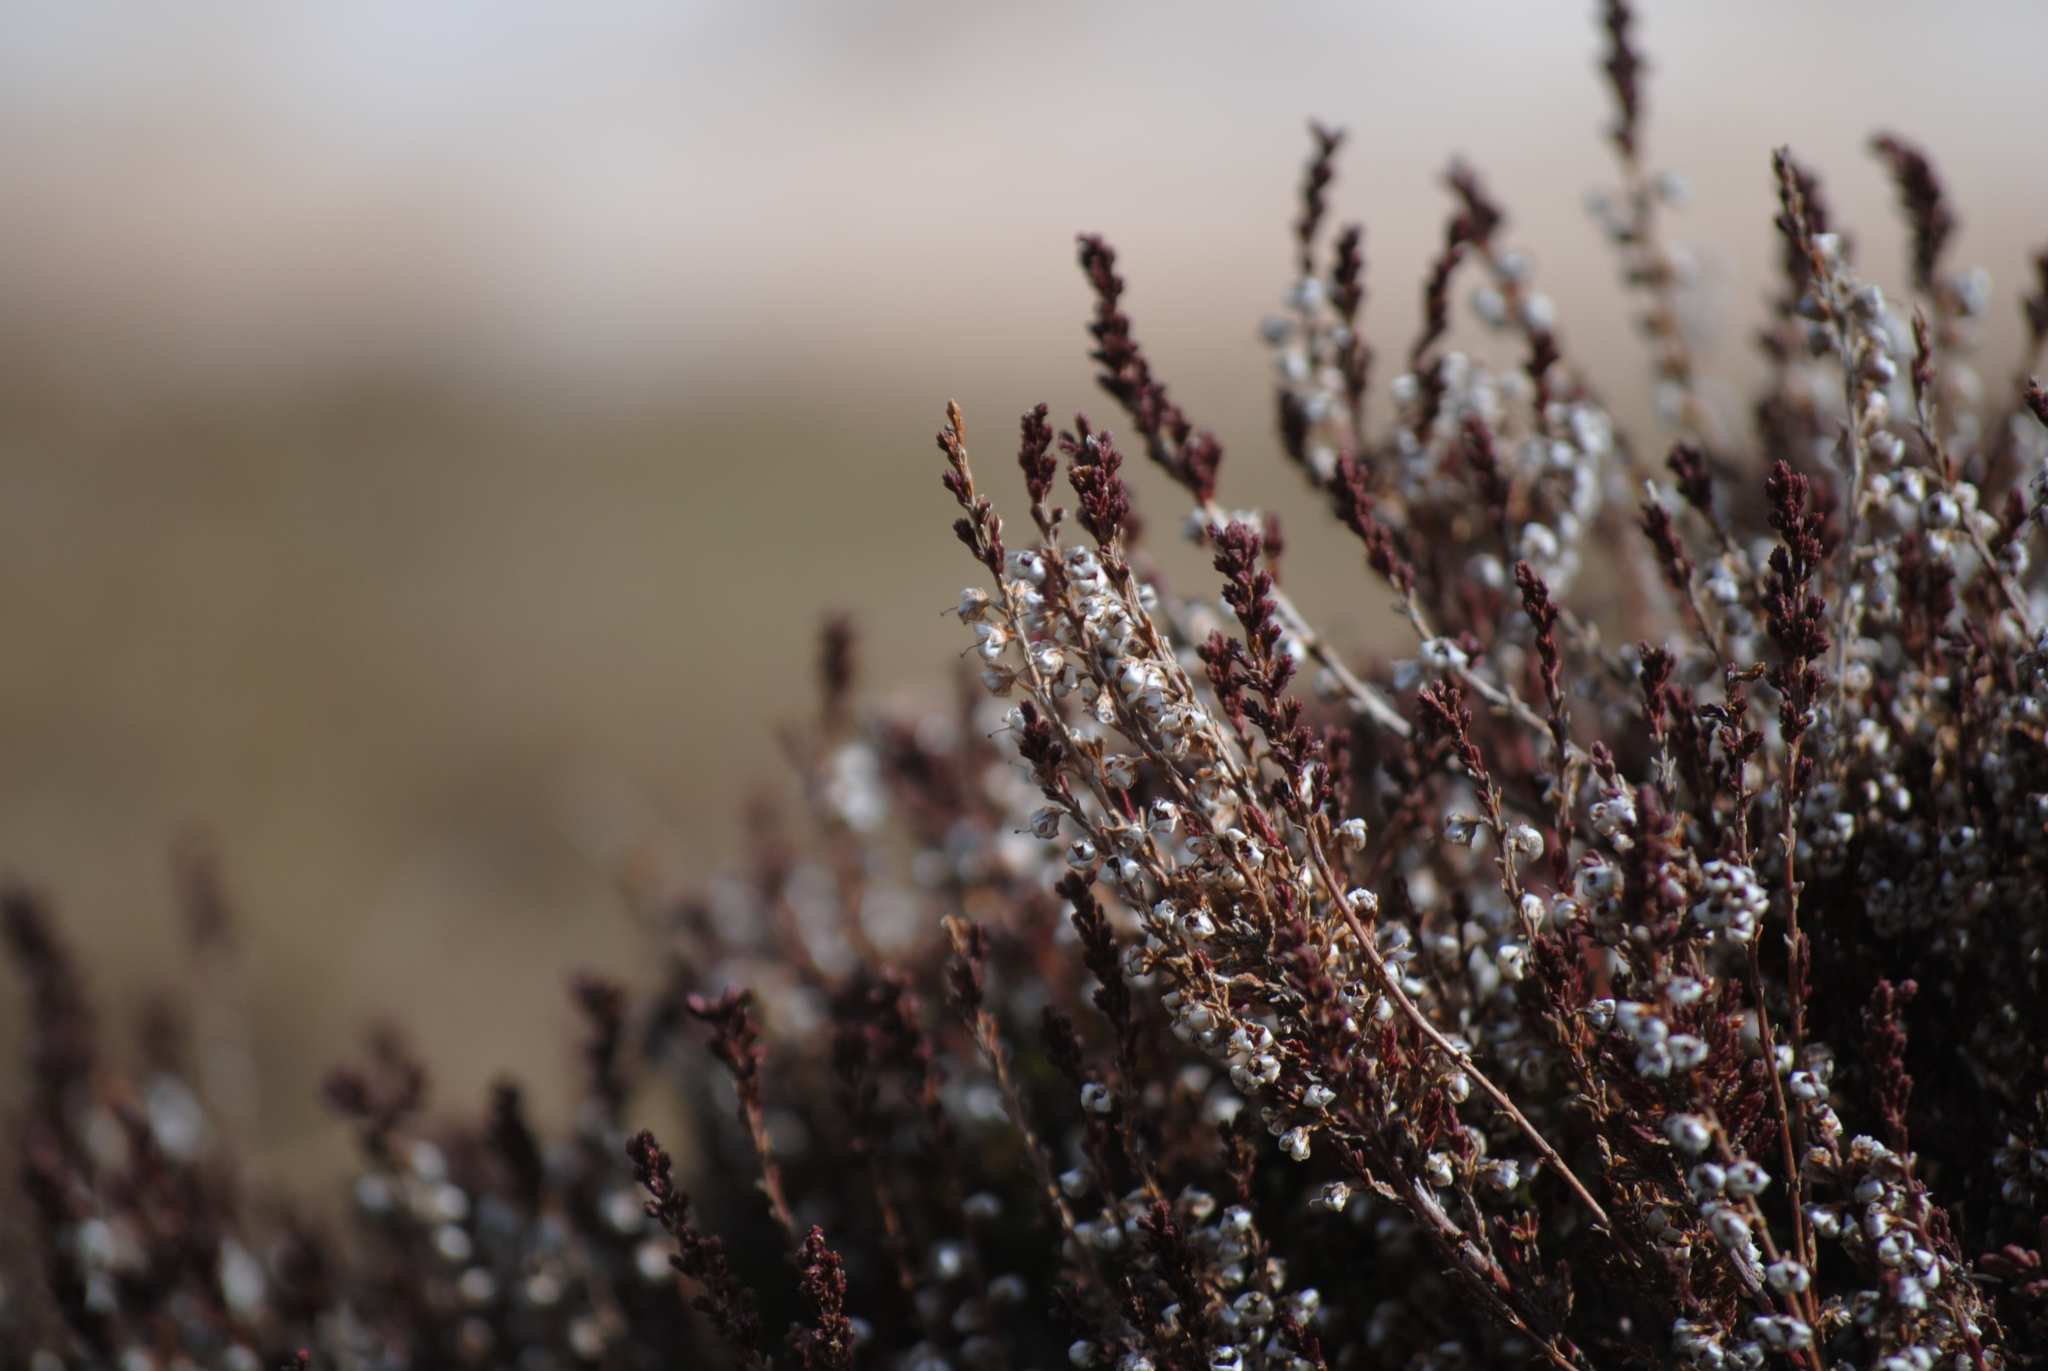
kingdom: Plantae
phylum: Tracheophyta
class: Magnoliopsida
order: Ericales
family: Ericaceae
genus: Calluna
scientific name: Calluna vulgaris
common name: Heather
